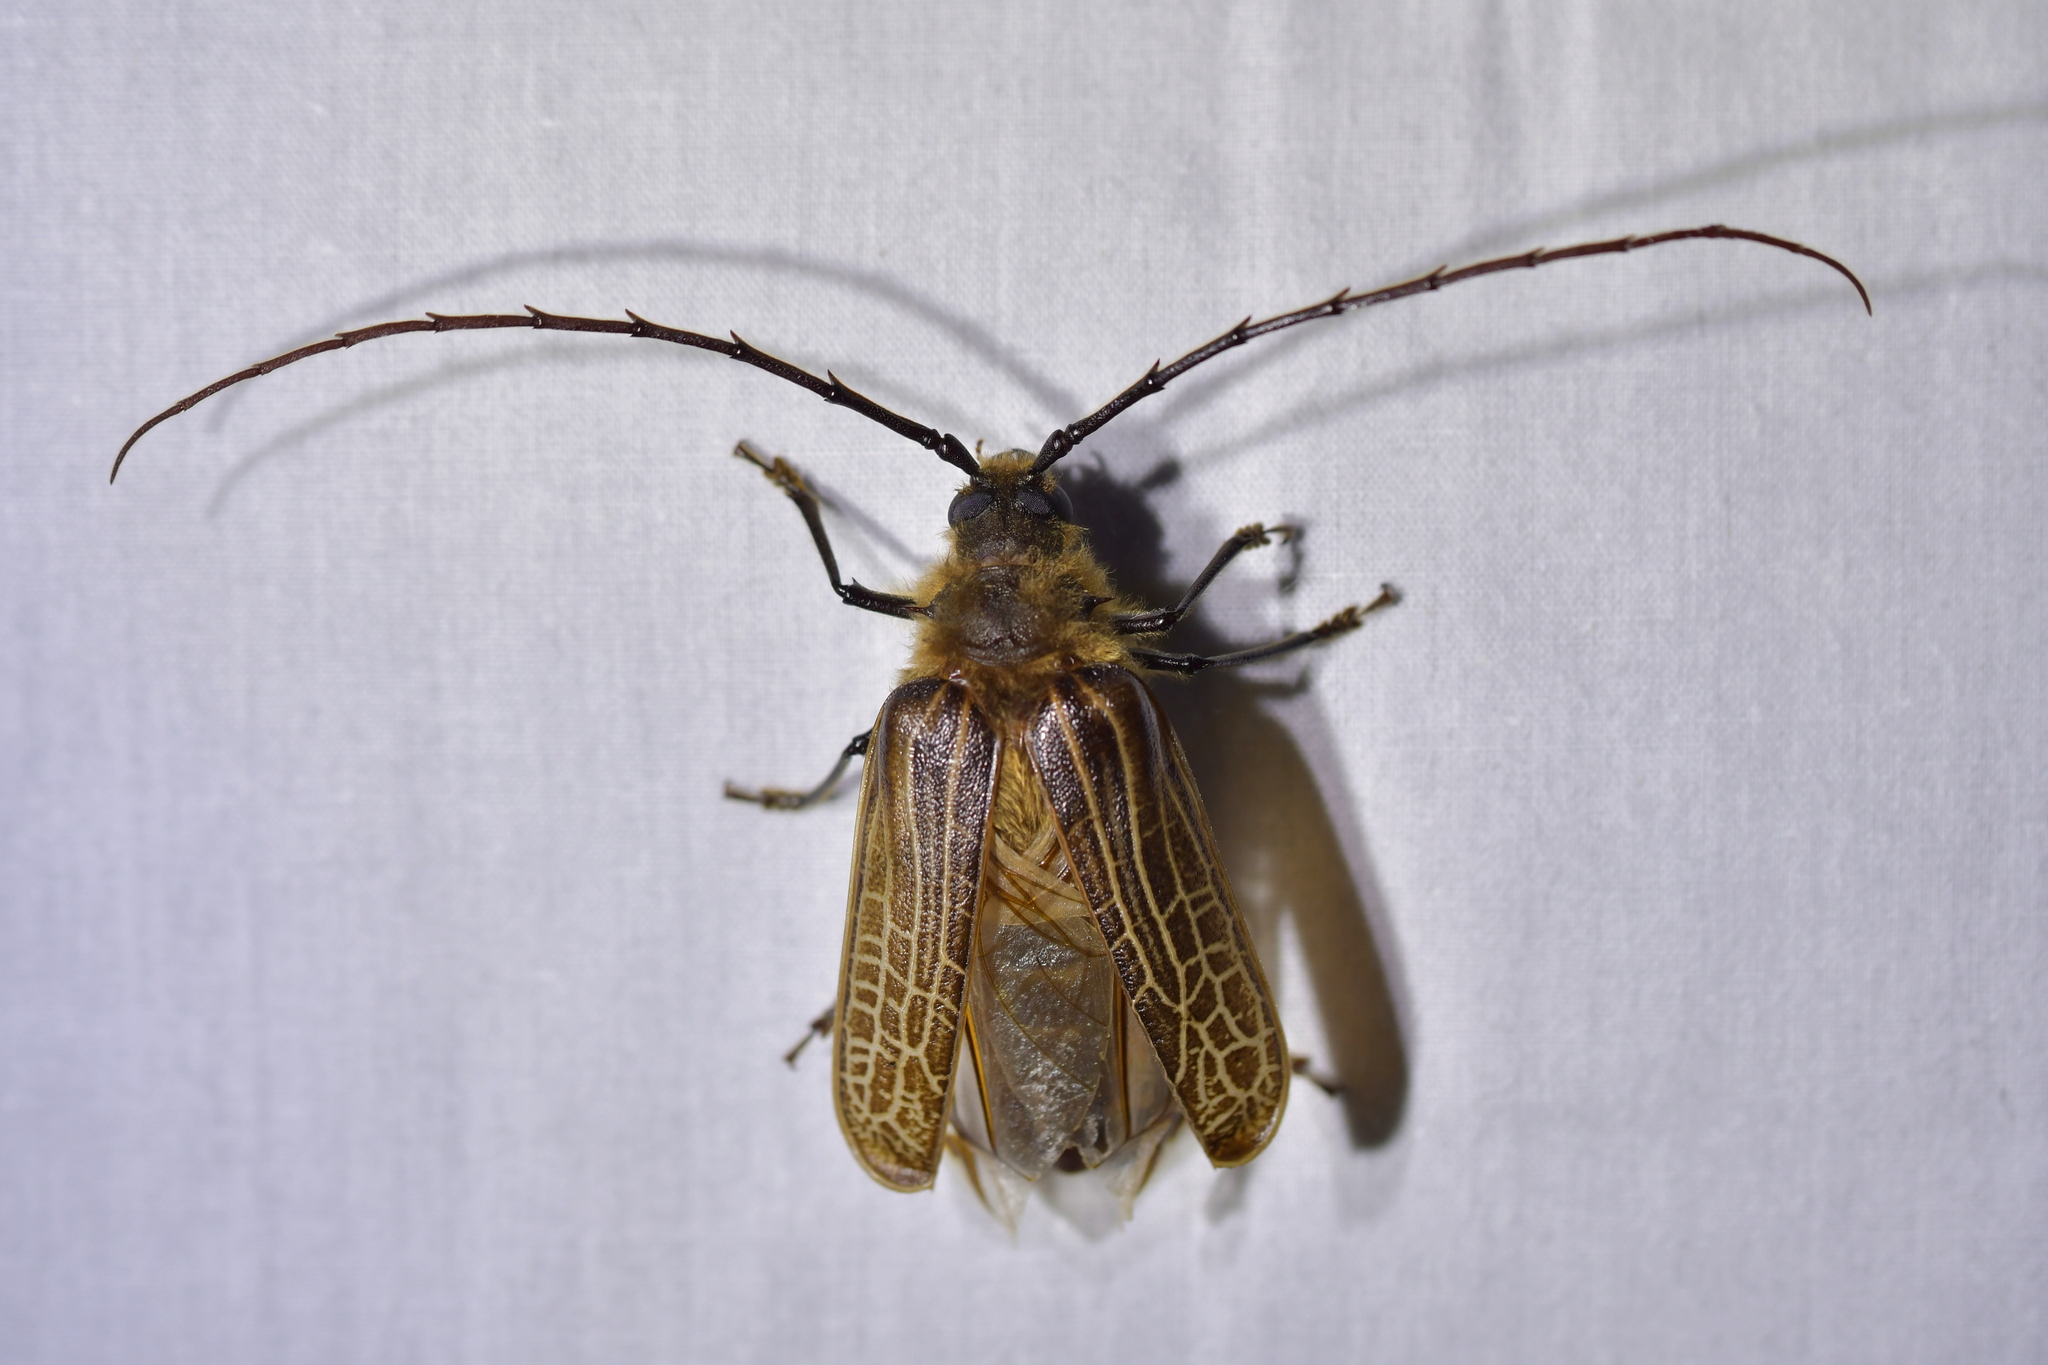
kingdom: Animalia
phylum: Arthropoda
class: Insecta
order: Coleoptera
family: Cerambycidae
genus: Prionoplus
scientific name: Prionoplus reticularis
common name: Huhu beetle
